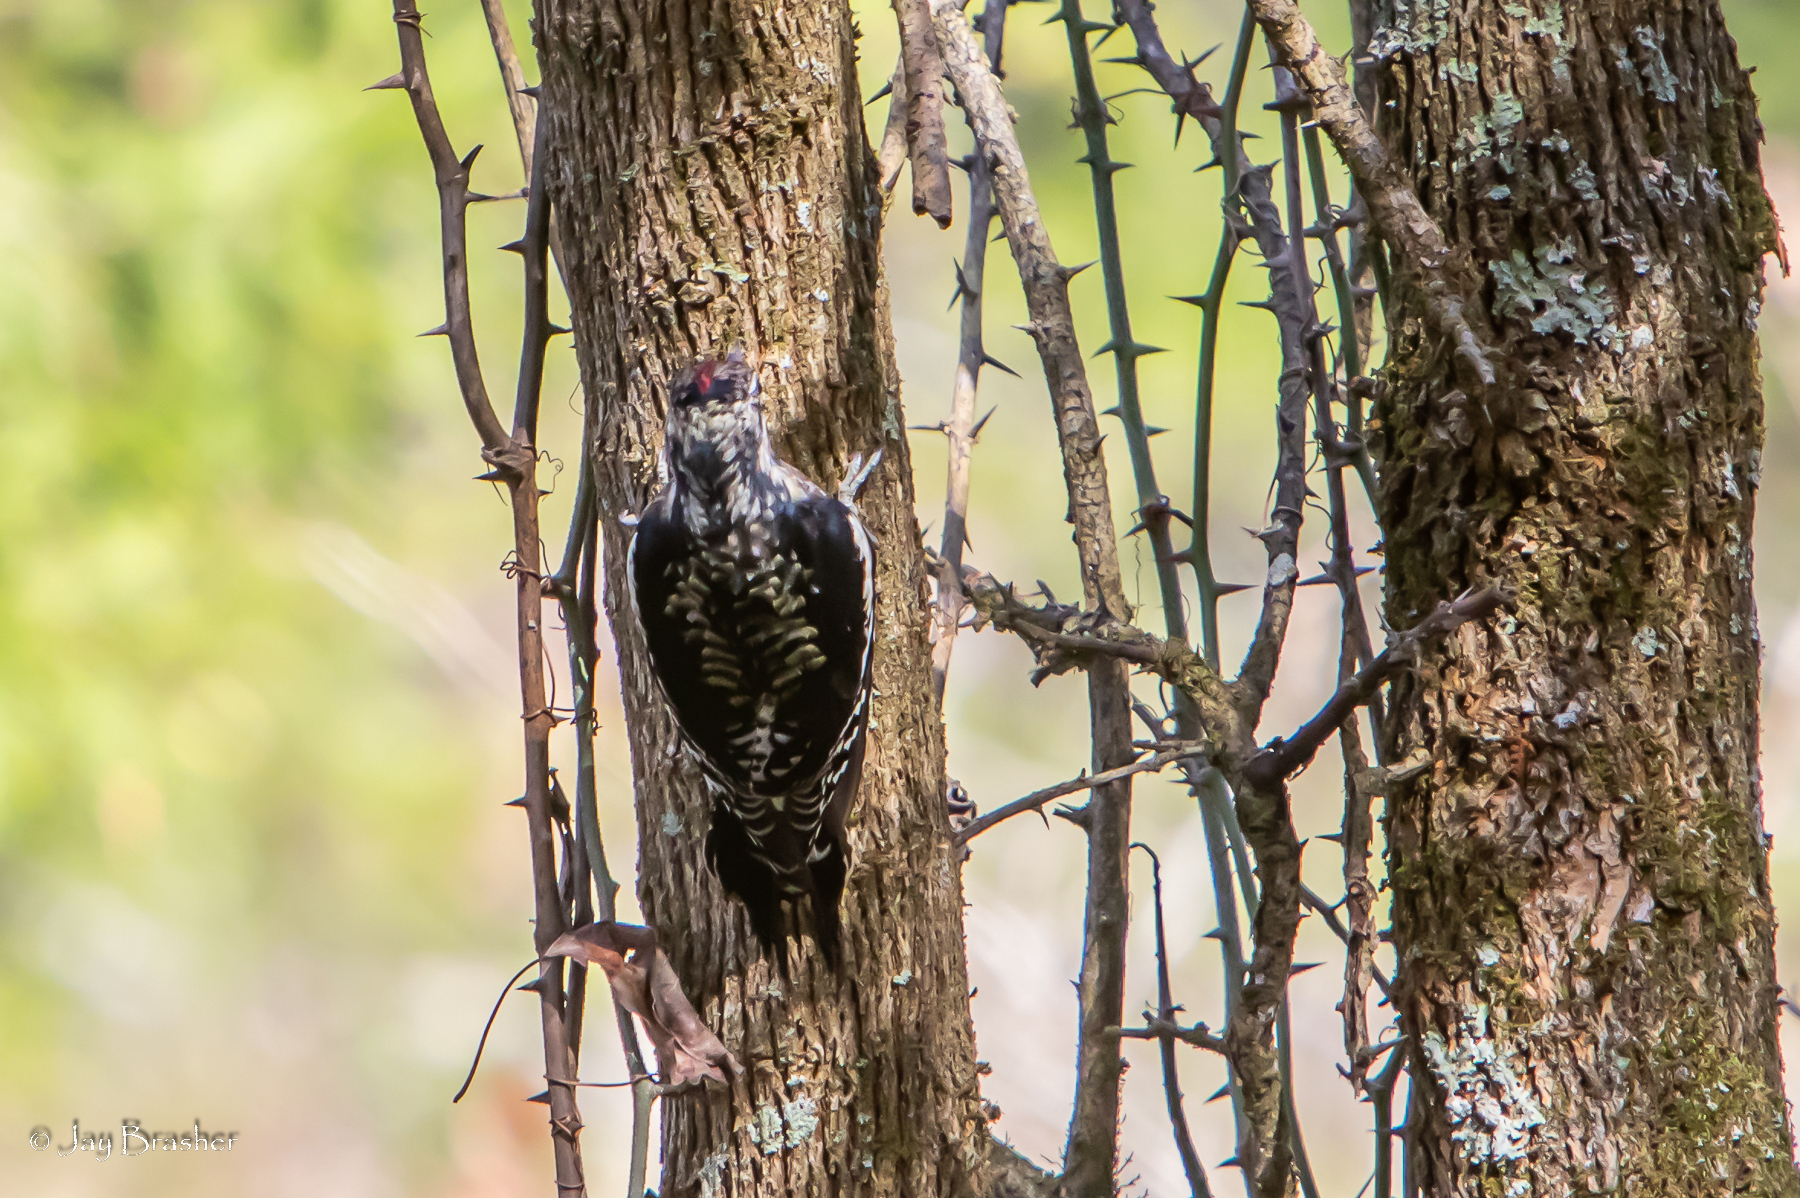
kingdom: Animalia
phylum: Chordata
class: Aves
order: Piciformes
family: Picidae
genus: Sphyrapicus
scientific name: Sphyrapicus varius
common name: Yellow-bellied sapsucker
